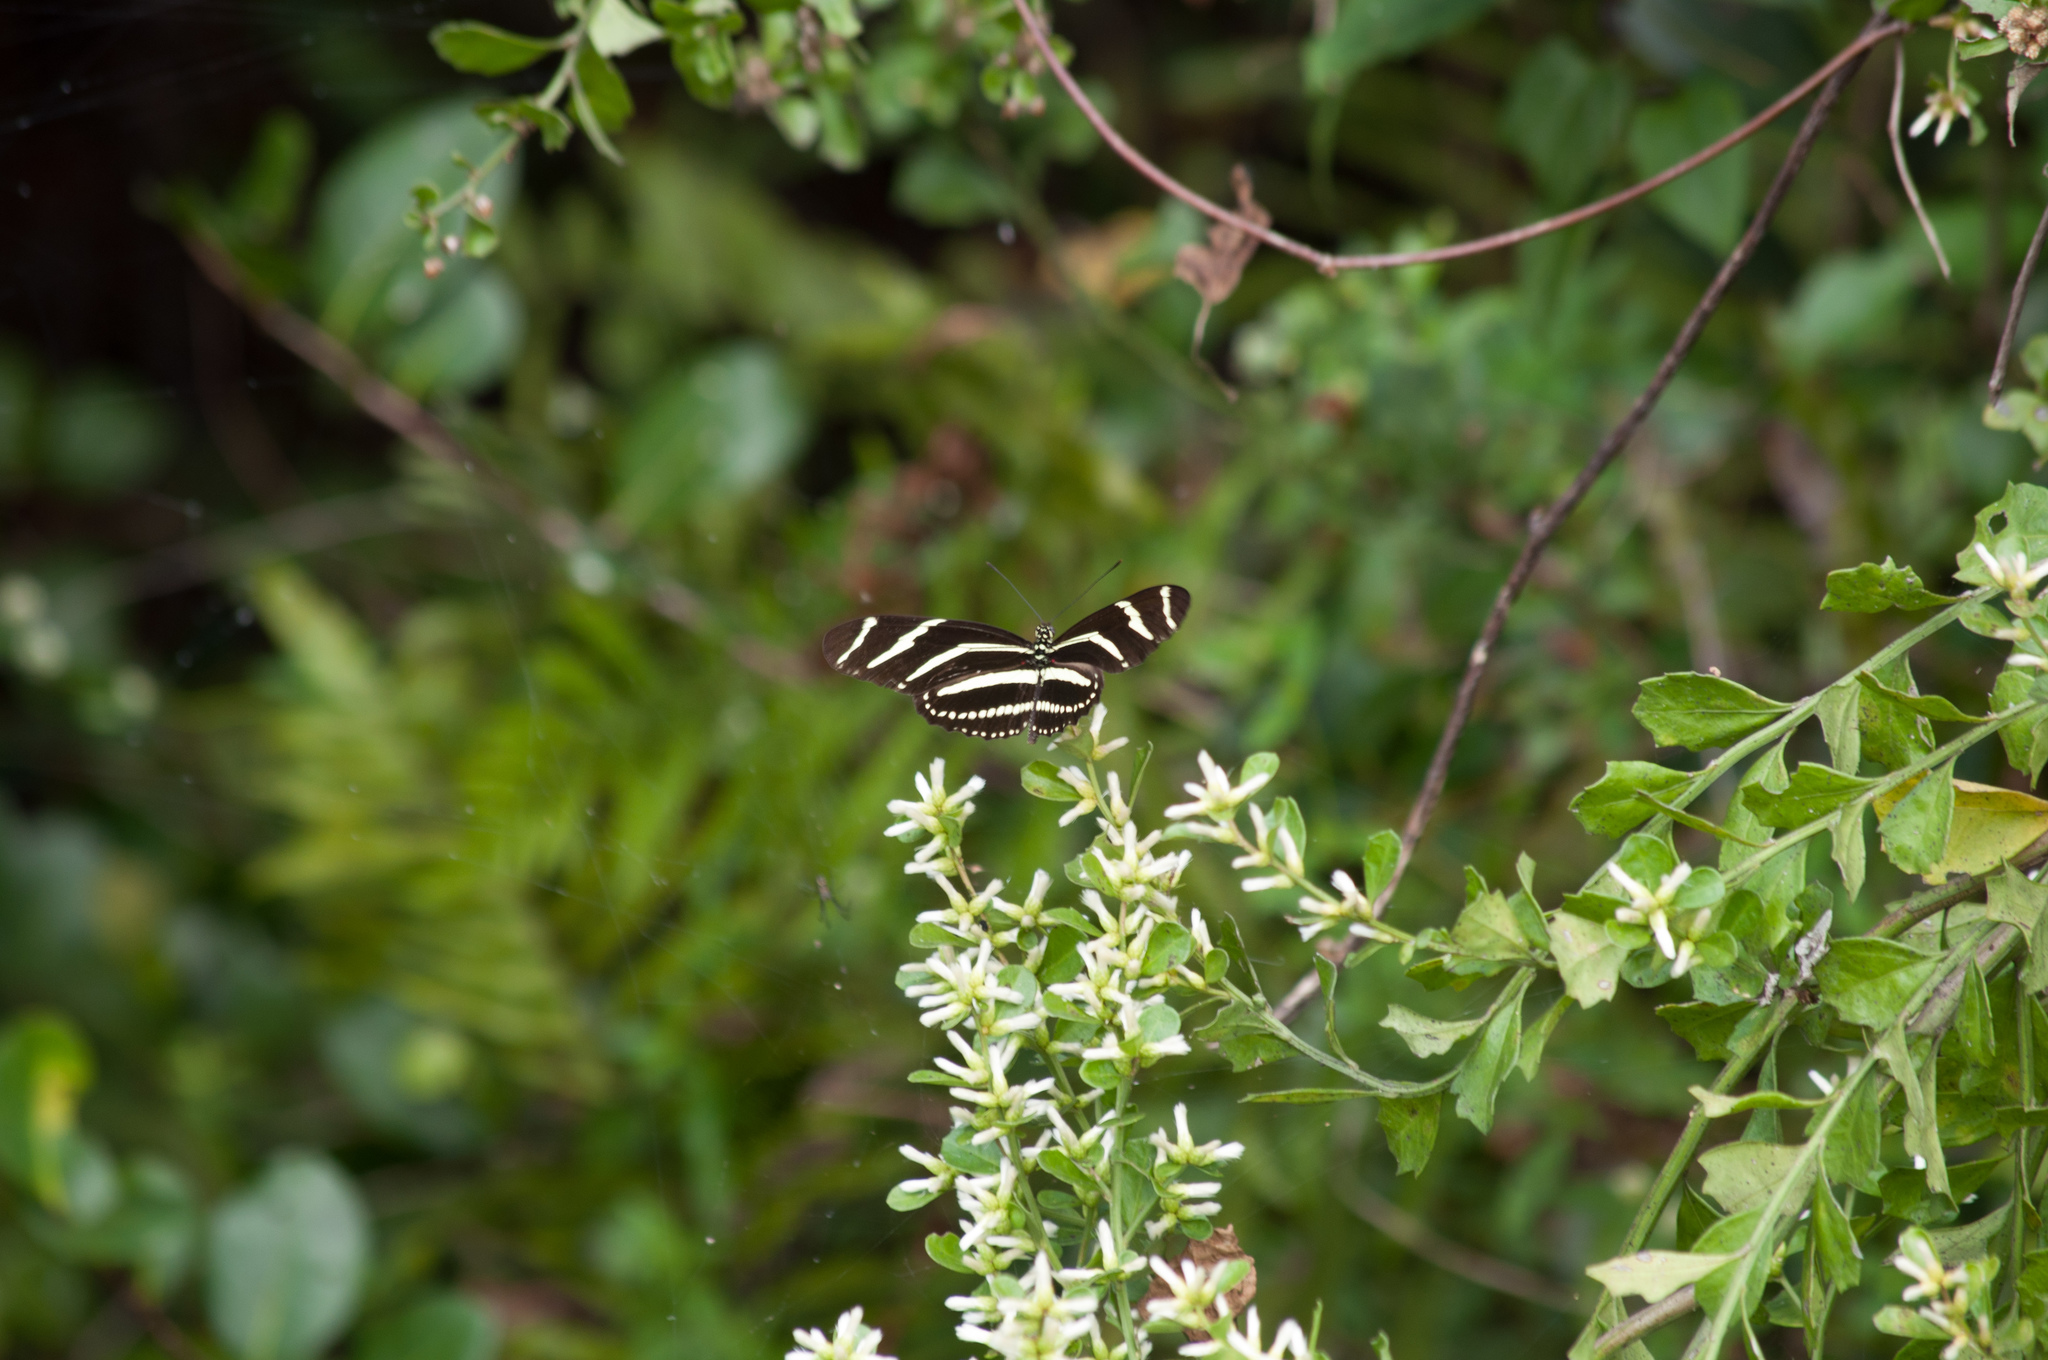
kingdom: Animalia
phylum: Arthropoda
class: Insecta
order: Lepidoptera
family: Nymphalidae
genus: Heliconius
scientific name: Heliconius charithonia
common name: Zebra long wing
